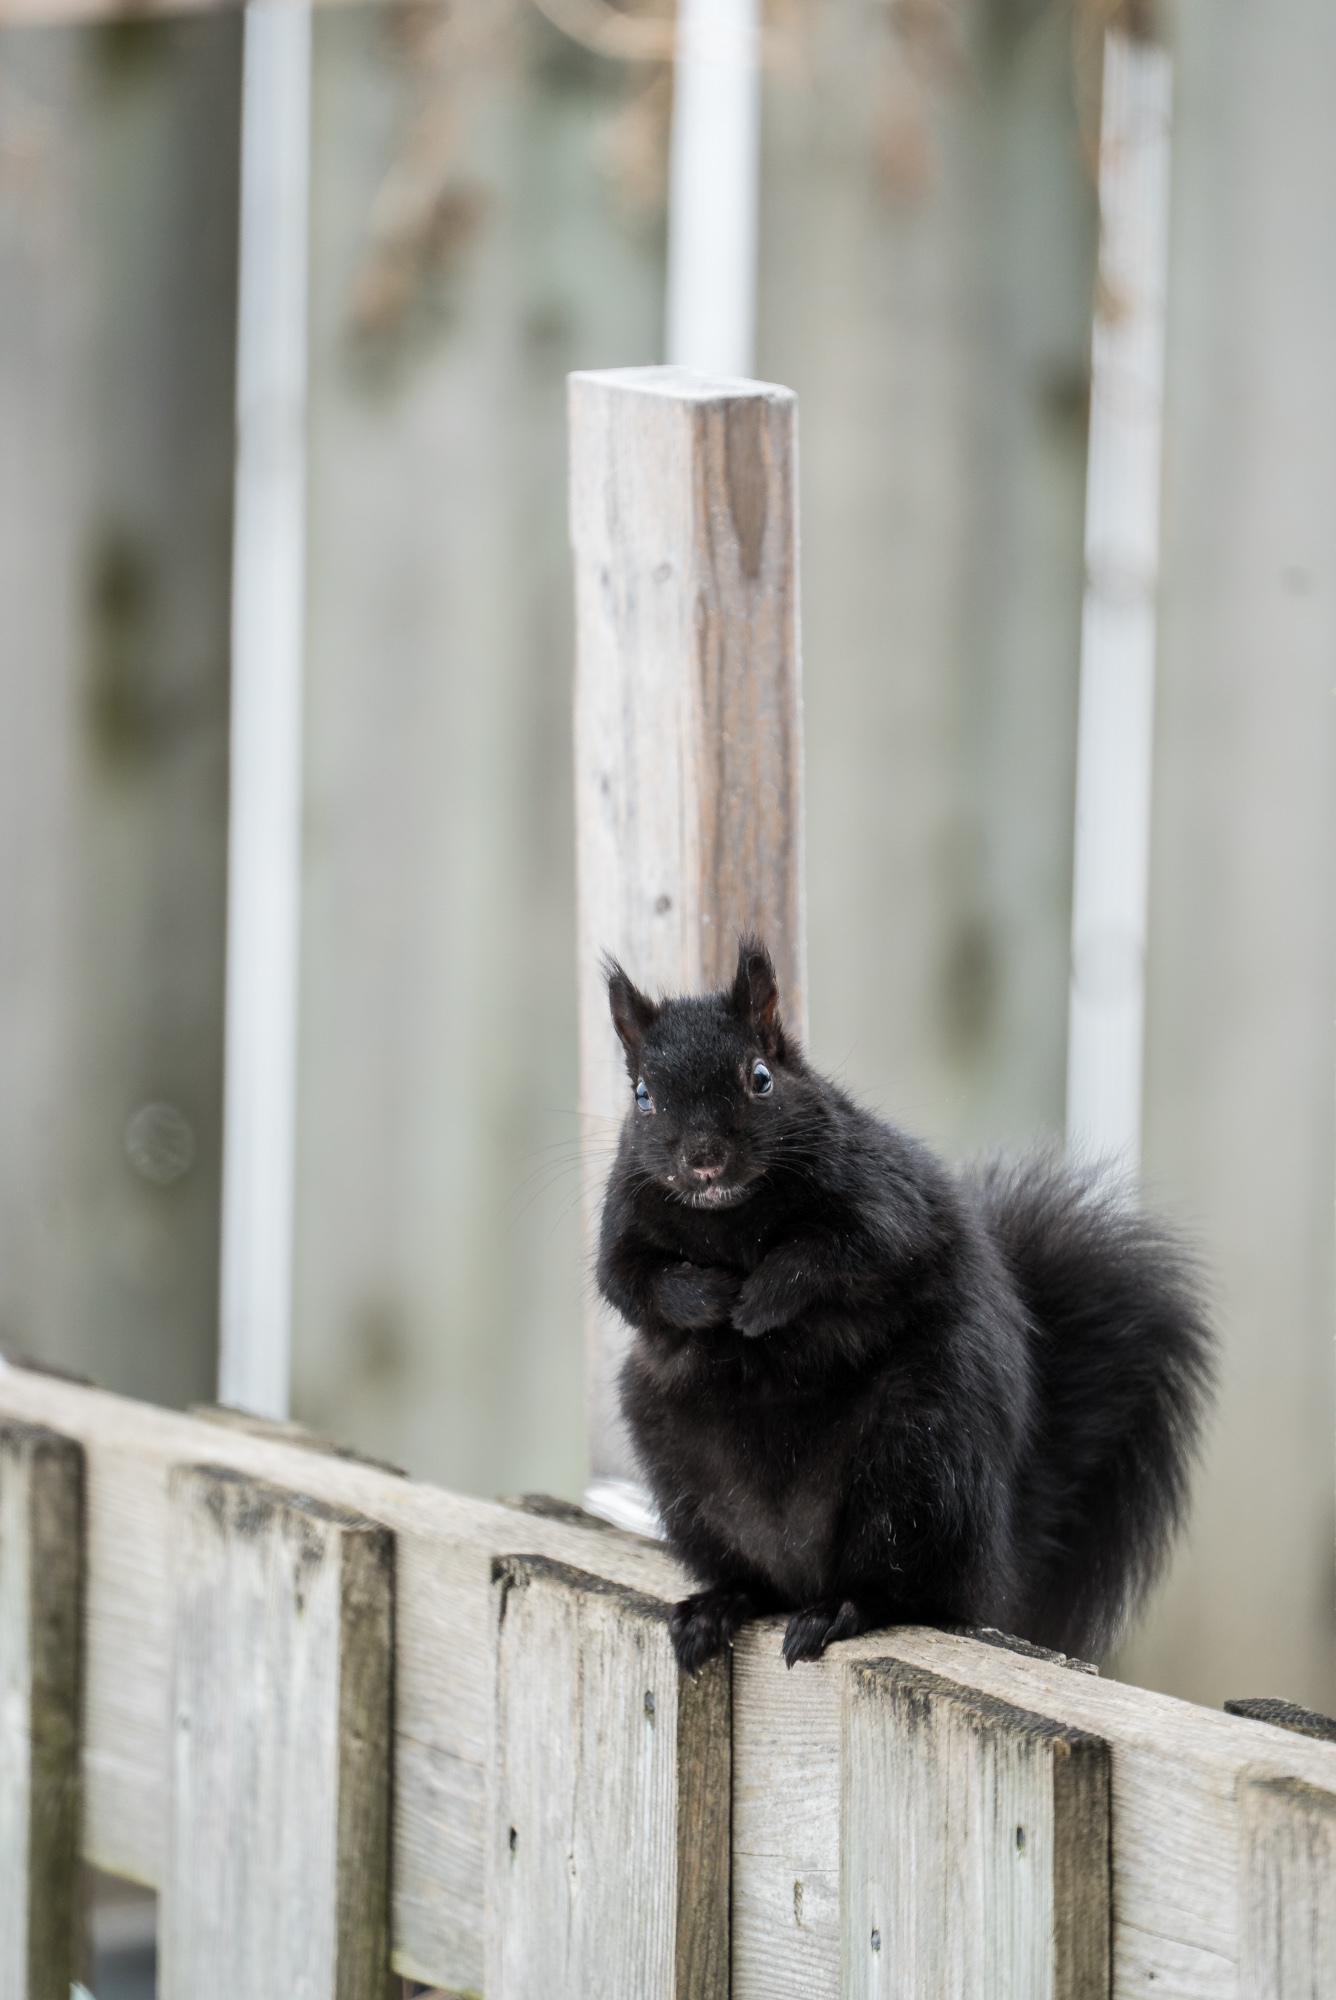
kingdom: Animalia
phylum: Chordata
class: Mammalia
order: Rodentia
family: Sciuridae
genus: Sciurus
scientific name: Sciurus carolinensis
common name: Eastern gray squirrel
